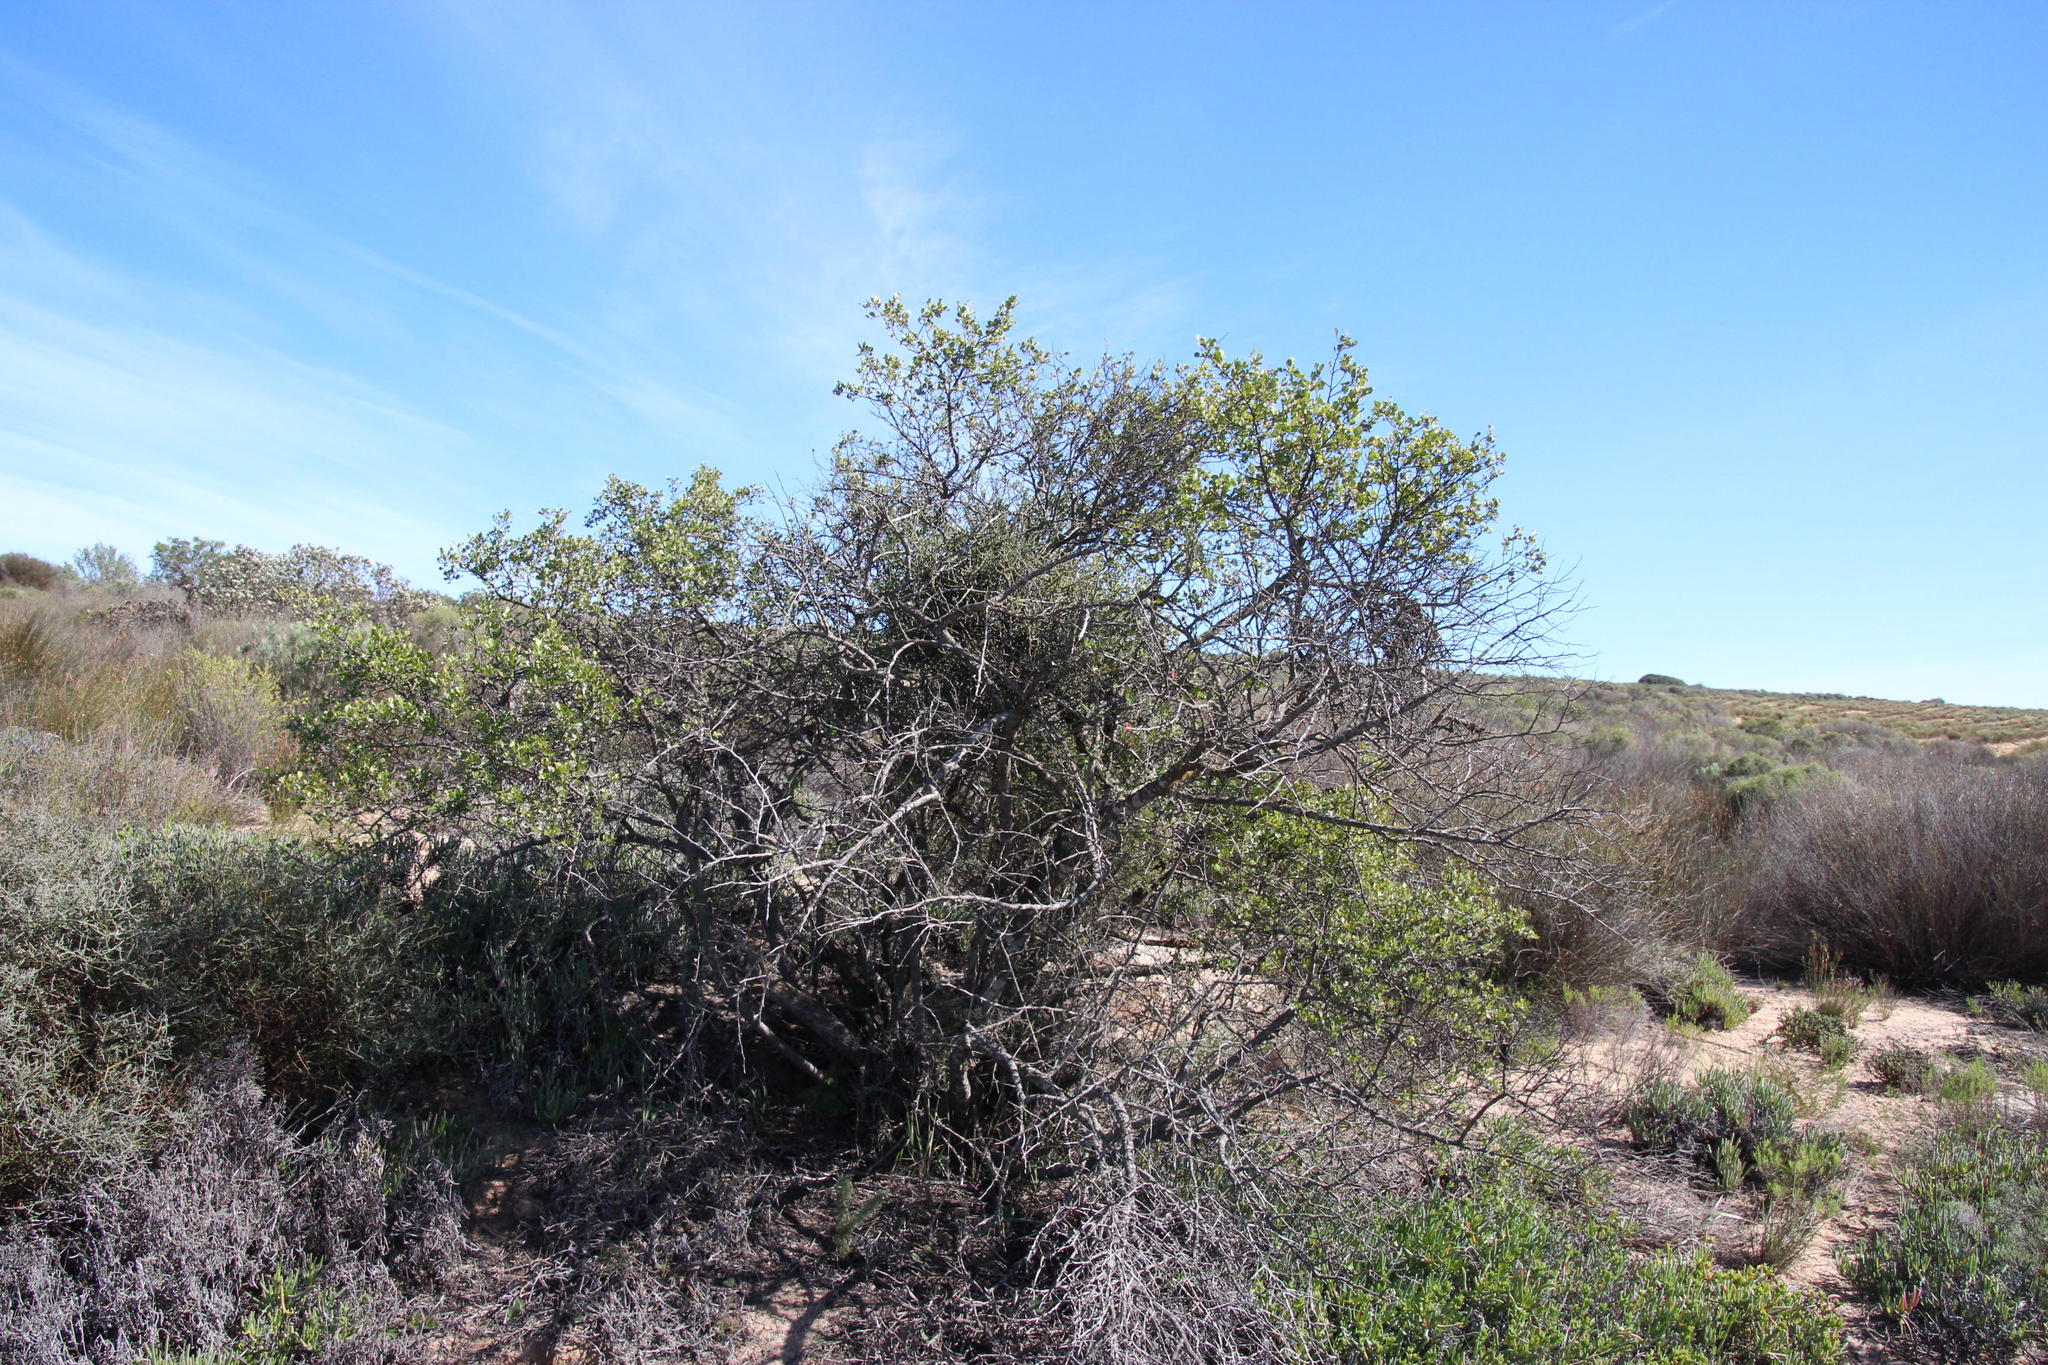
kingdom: Plantae
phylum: Tracheophyta
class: Magnoliopsida
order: Sapindales
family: Anacardiaceae
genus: Searsia
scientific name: Searsia undulata
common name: Namaqua kunibush
